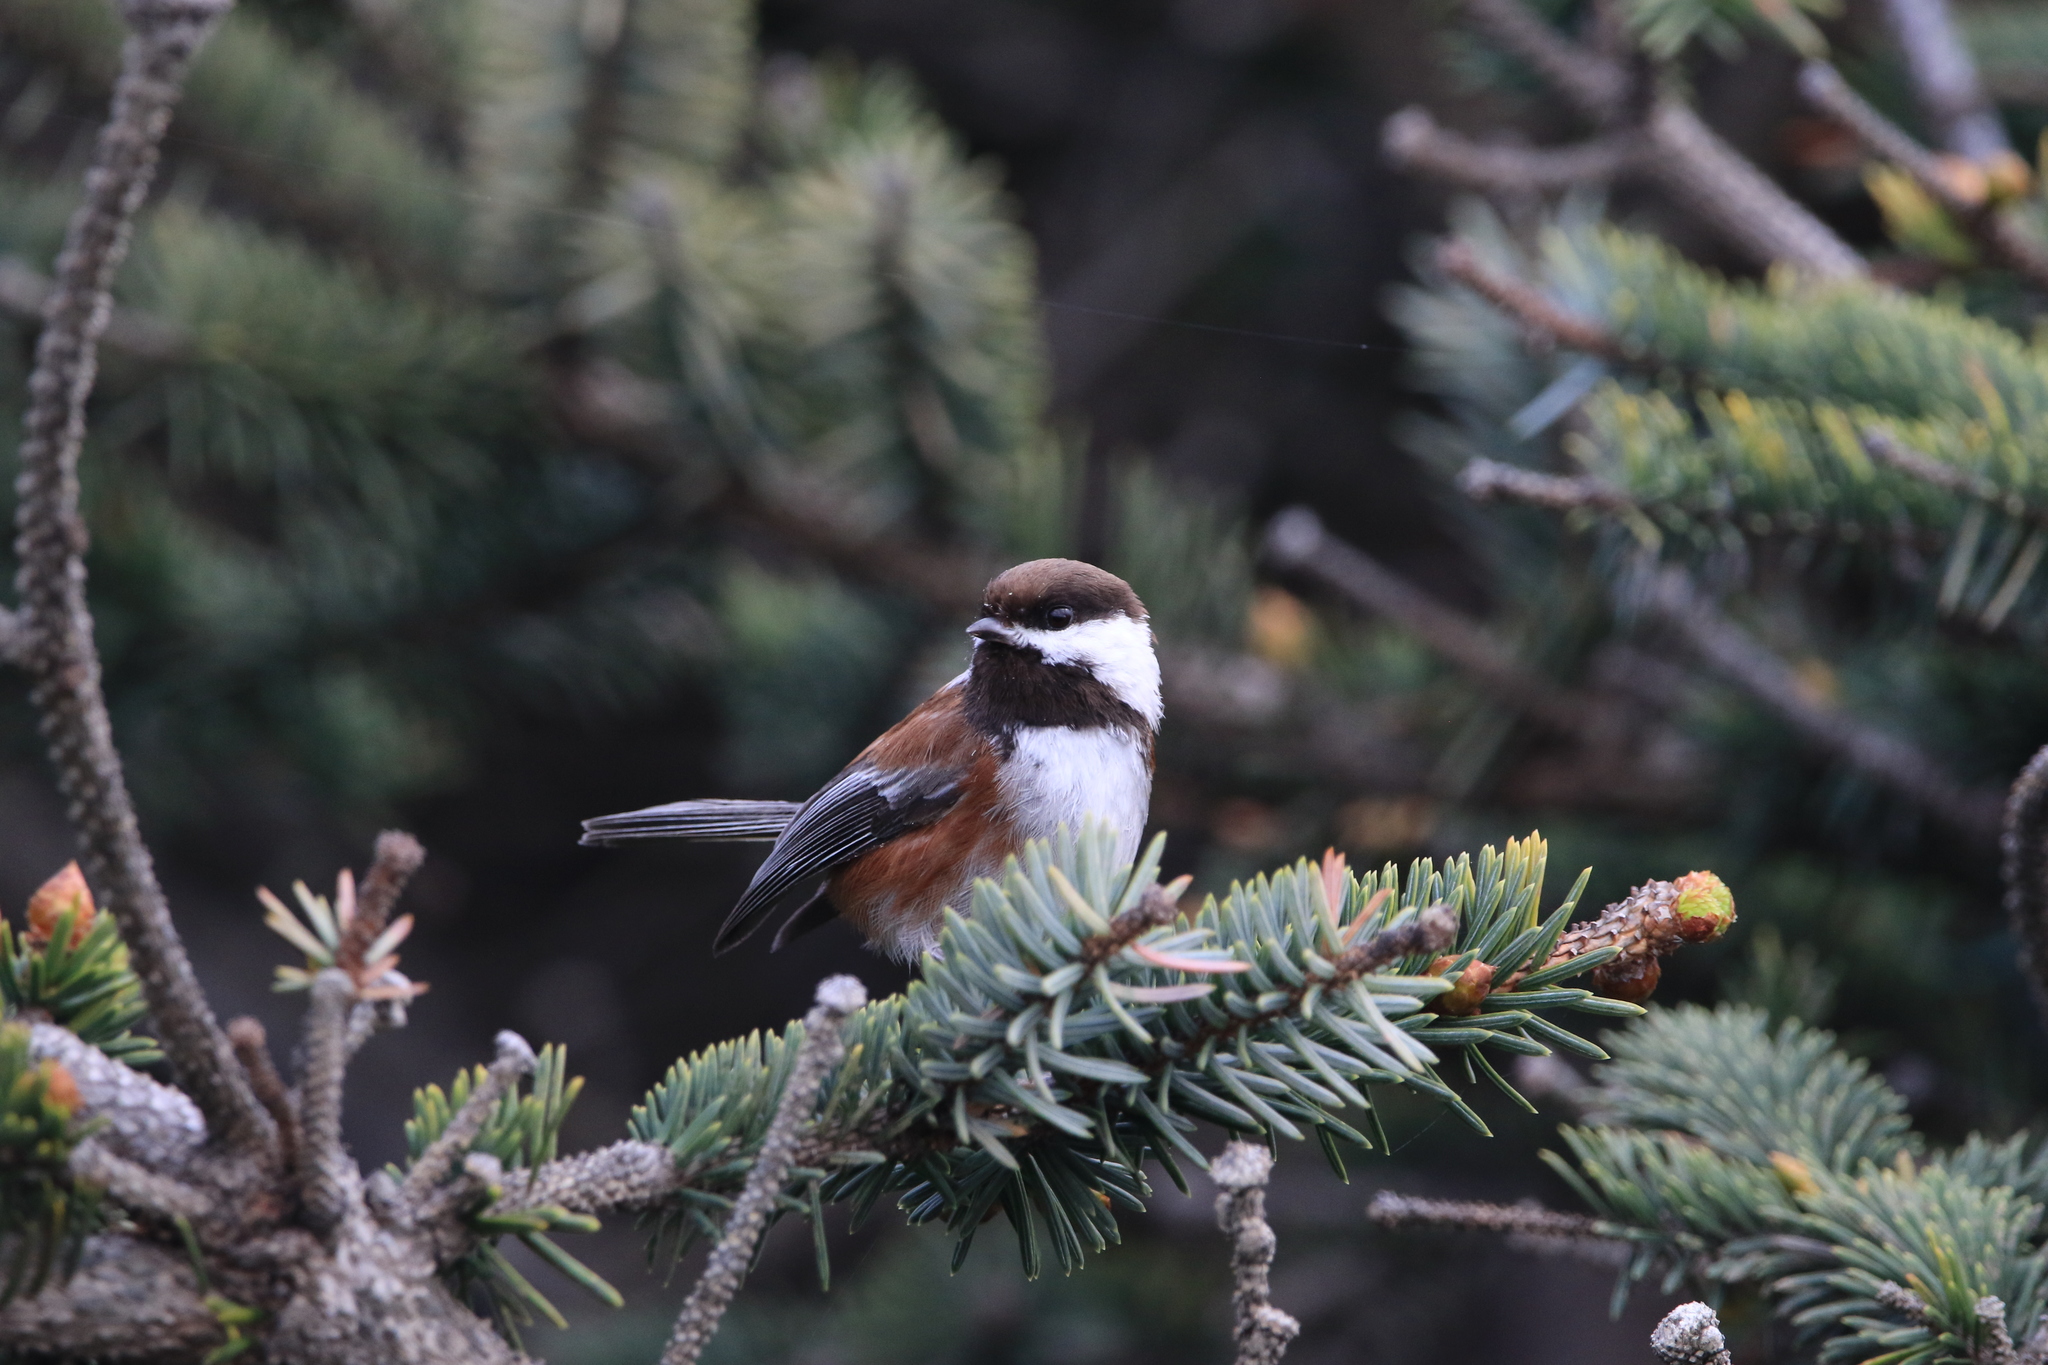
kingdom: Animalia
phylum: Chordata
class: Aves
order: Passeriformes
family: Paridae
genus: Poecile
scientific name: Poecile rufescens
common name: Chestnut-backed chickadee
